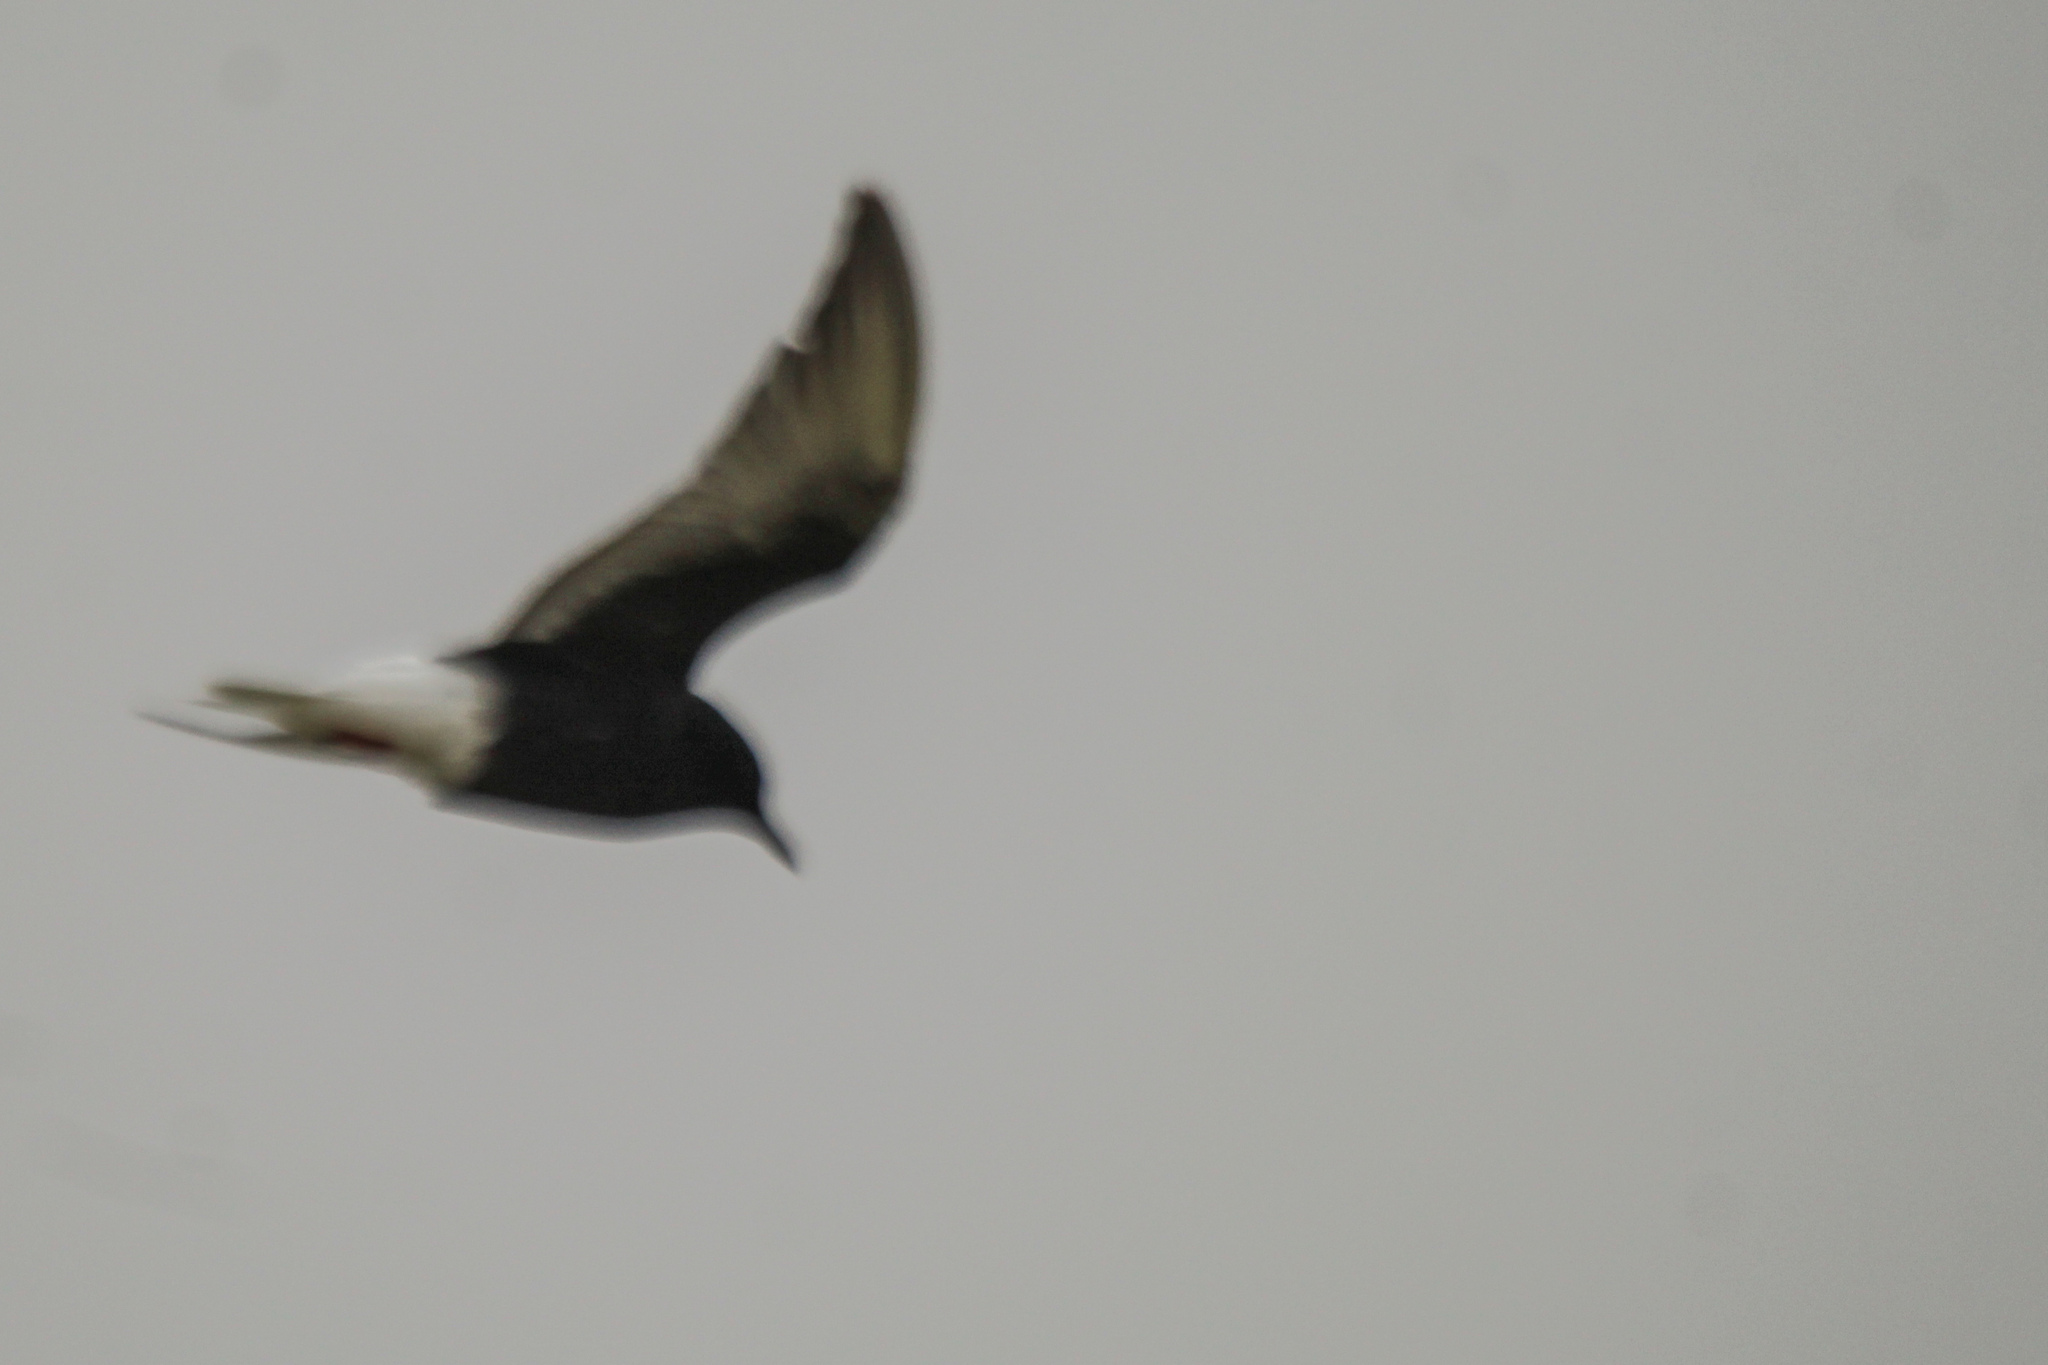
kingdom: Animalia
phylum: Chordata
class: Aves
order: Charadriiformes
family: Laridae
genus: Chlidonias
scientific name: Chlidonias leucopterus
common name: White-winged tern
